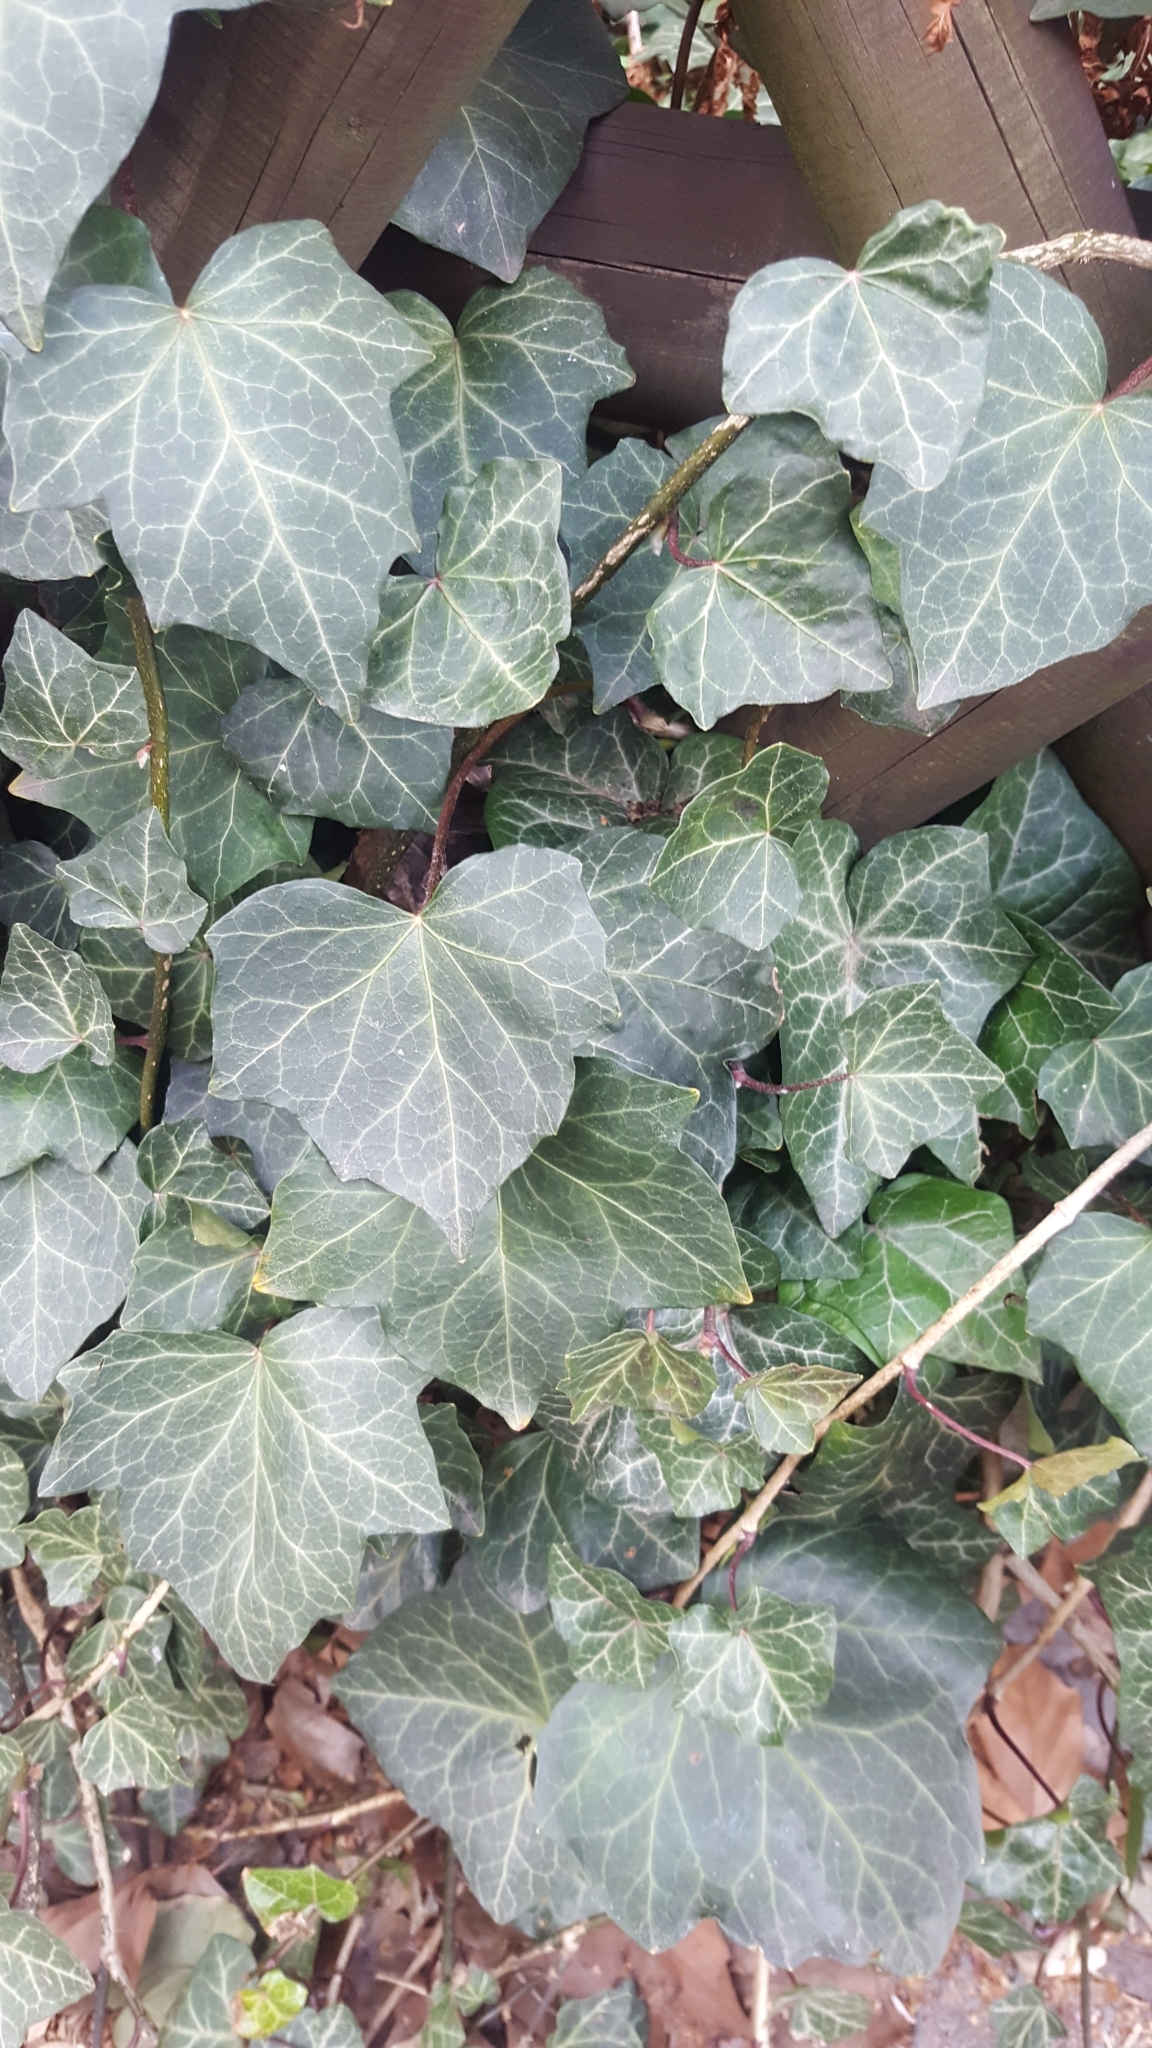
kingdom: Plantae
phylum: Tracheophyta
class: Magnoliopsida
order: Apiales
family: Araliaceae
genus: Hedera
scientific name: Hedera helix
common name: Ivy
